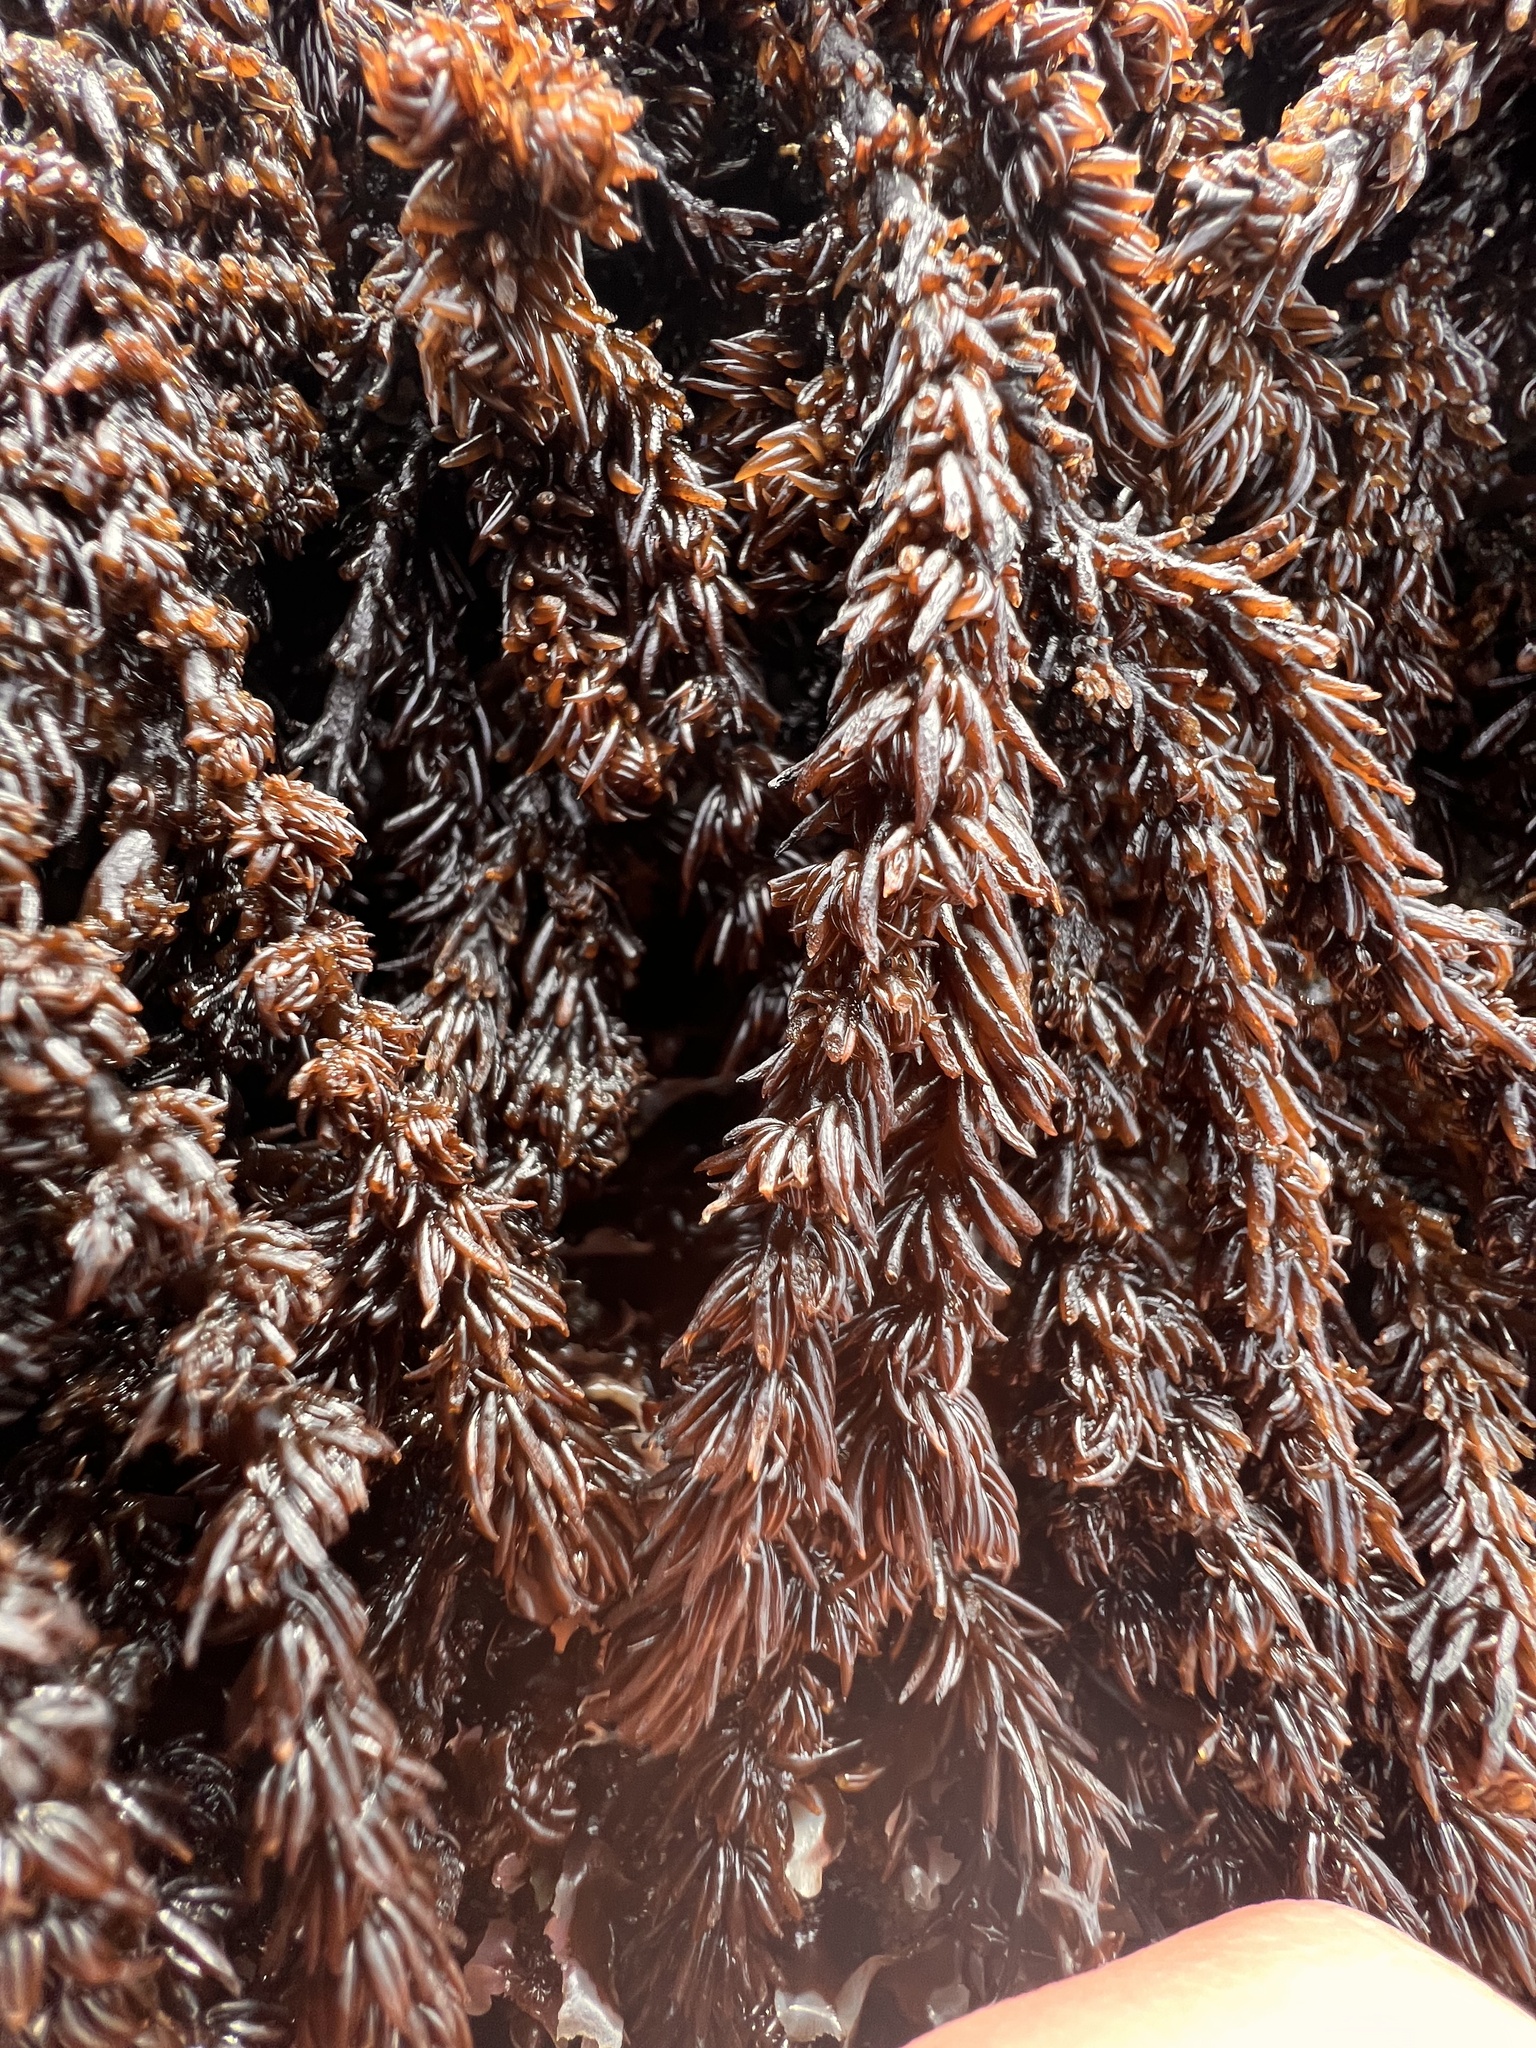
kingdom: Plantae
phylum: Rhodophyta
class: Florideophyceae
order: Ceramiales
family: Rhodomelaceae
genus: Neorhodomela
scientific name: Neorhodomela larix
